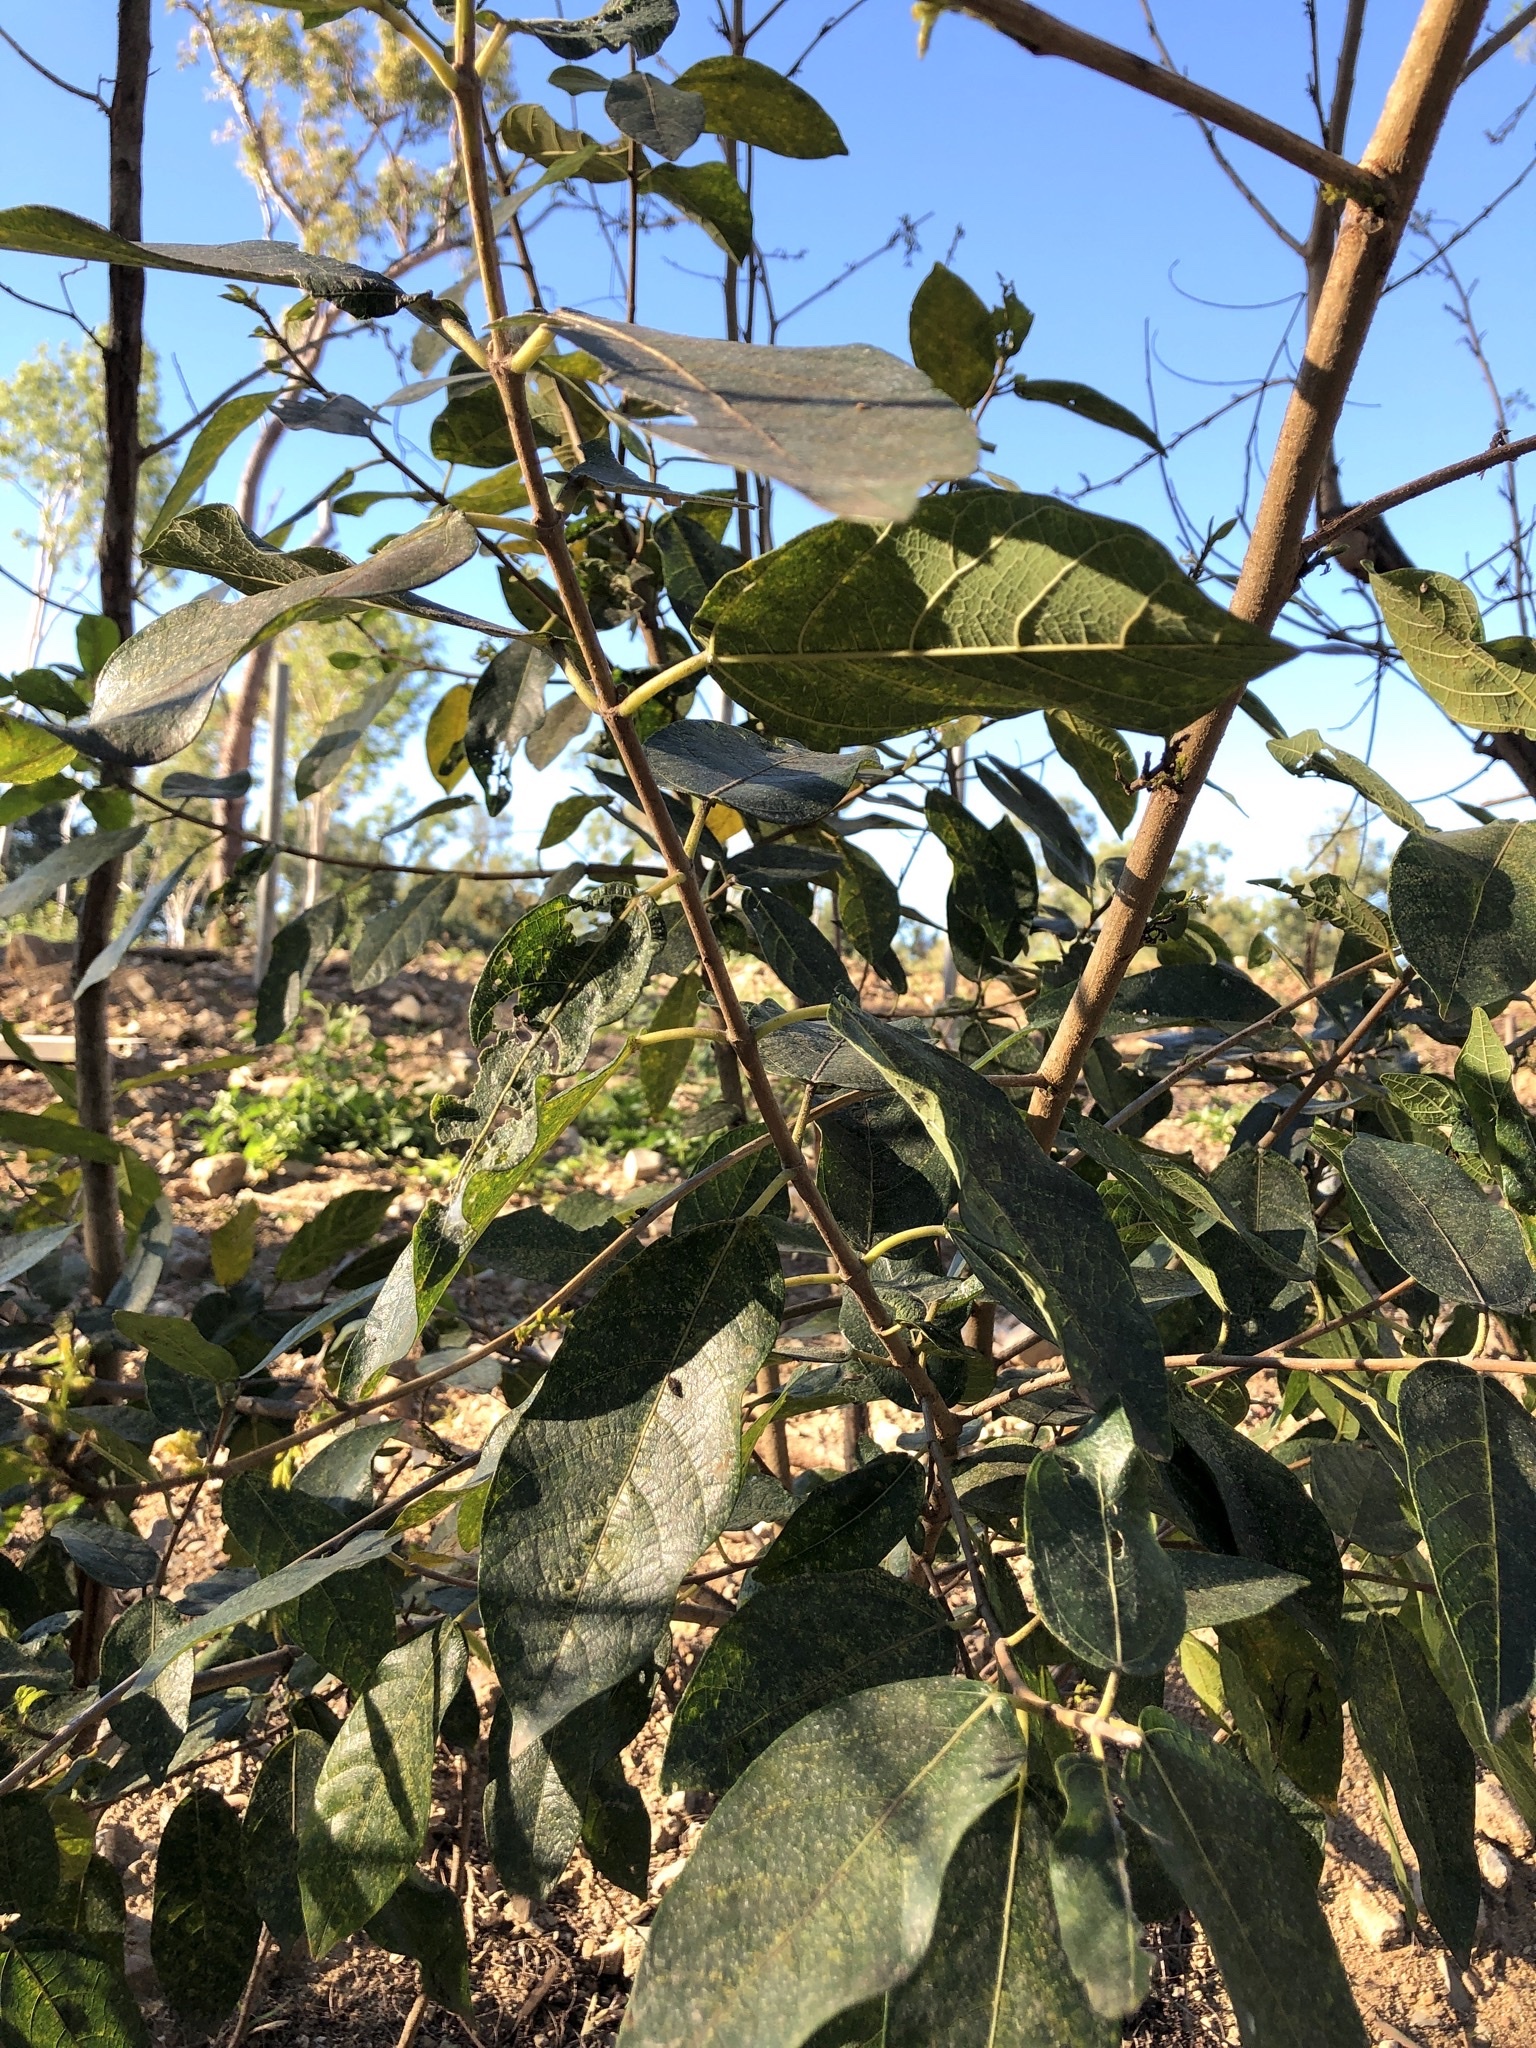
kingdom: Plantae
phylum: Tracheophyta
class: Magnoliopsida
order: Rosales
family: Moraceae
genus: Ficus
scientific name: Ficus opposita
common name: Figwood
